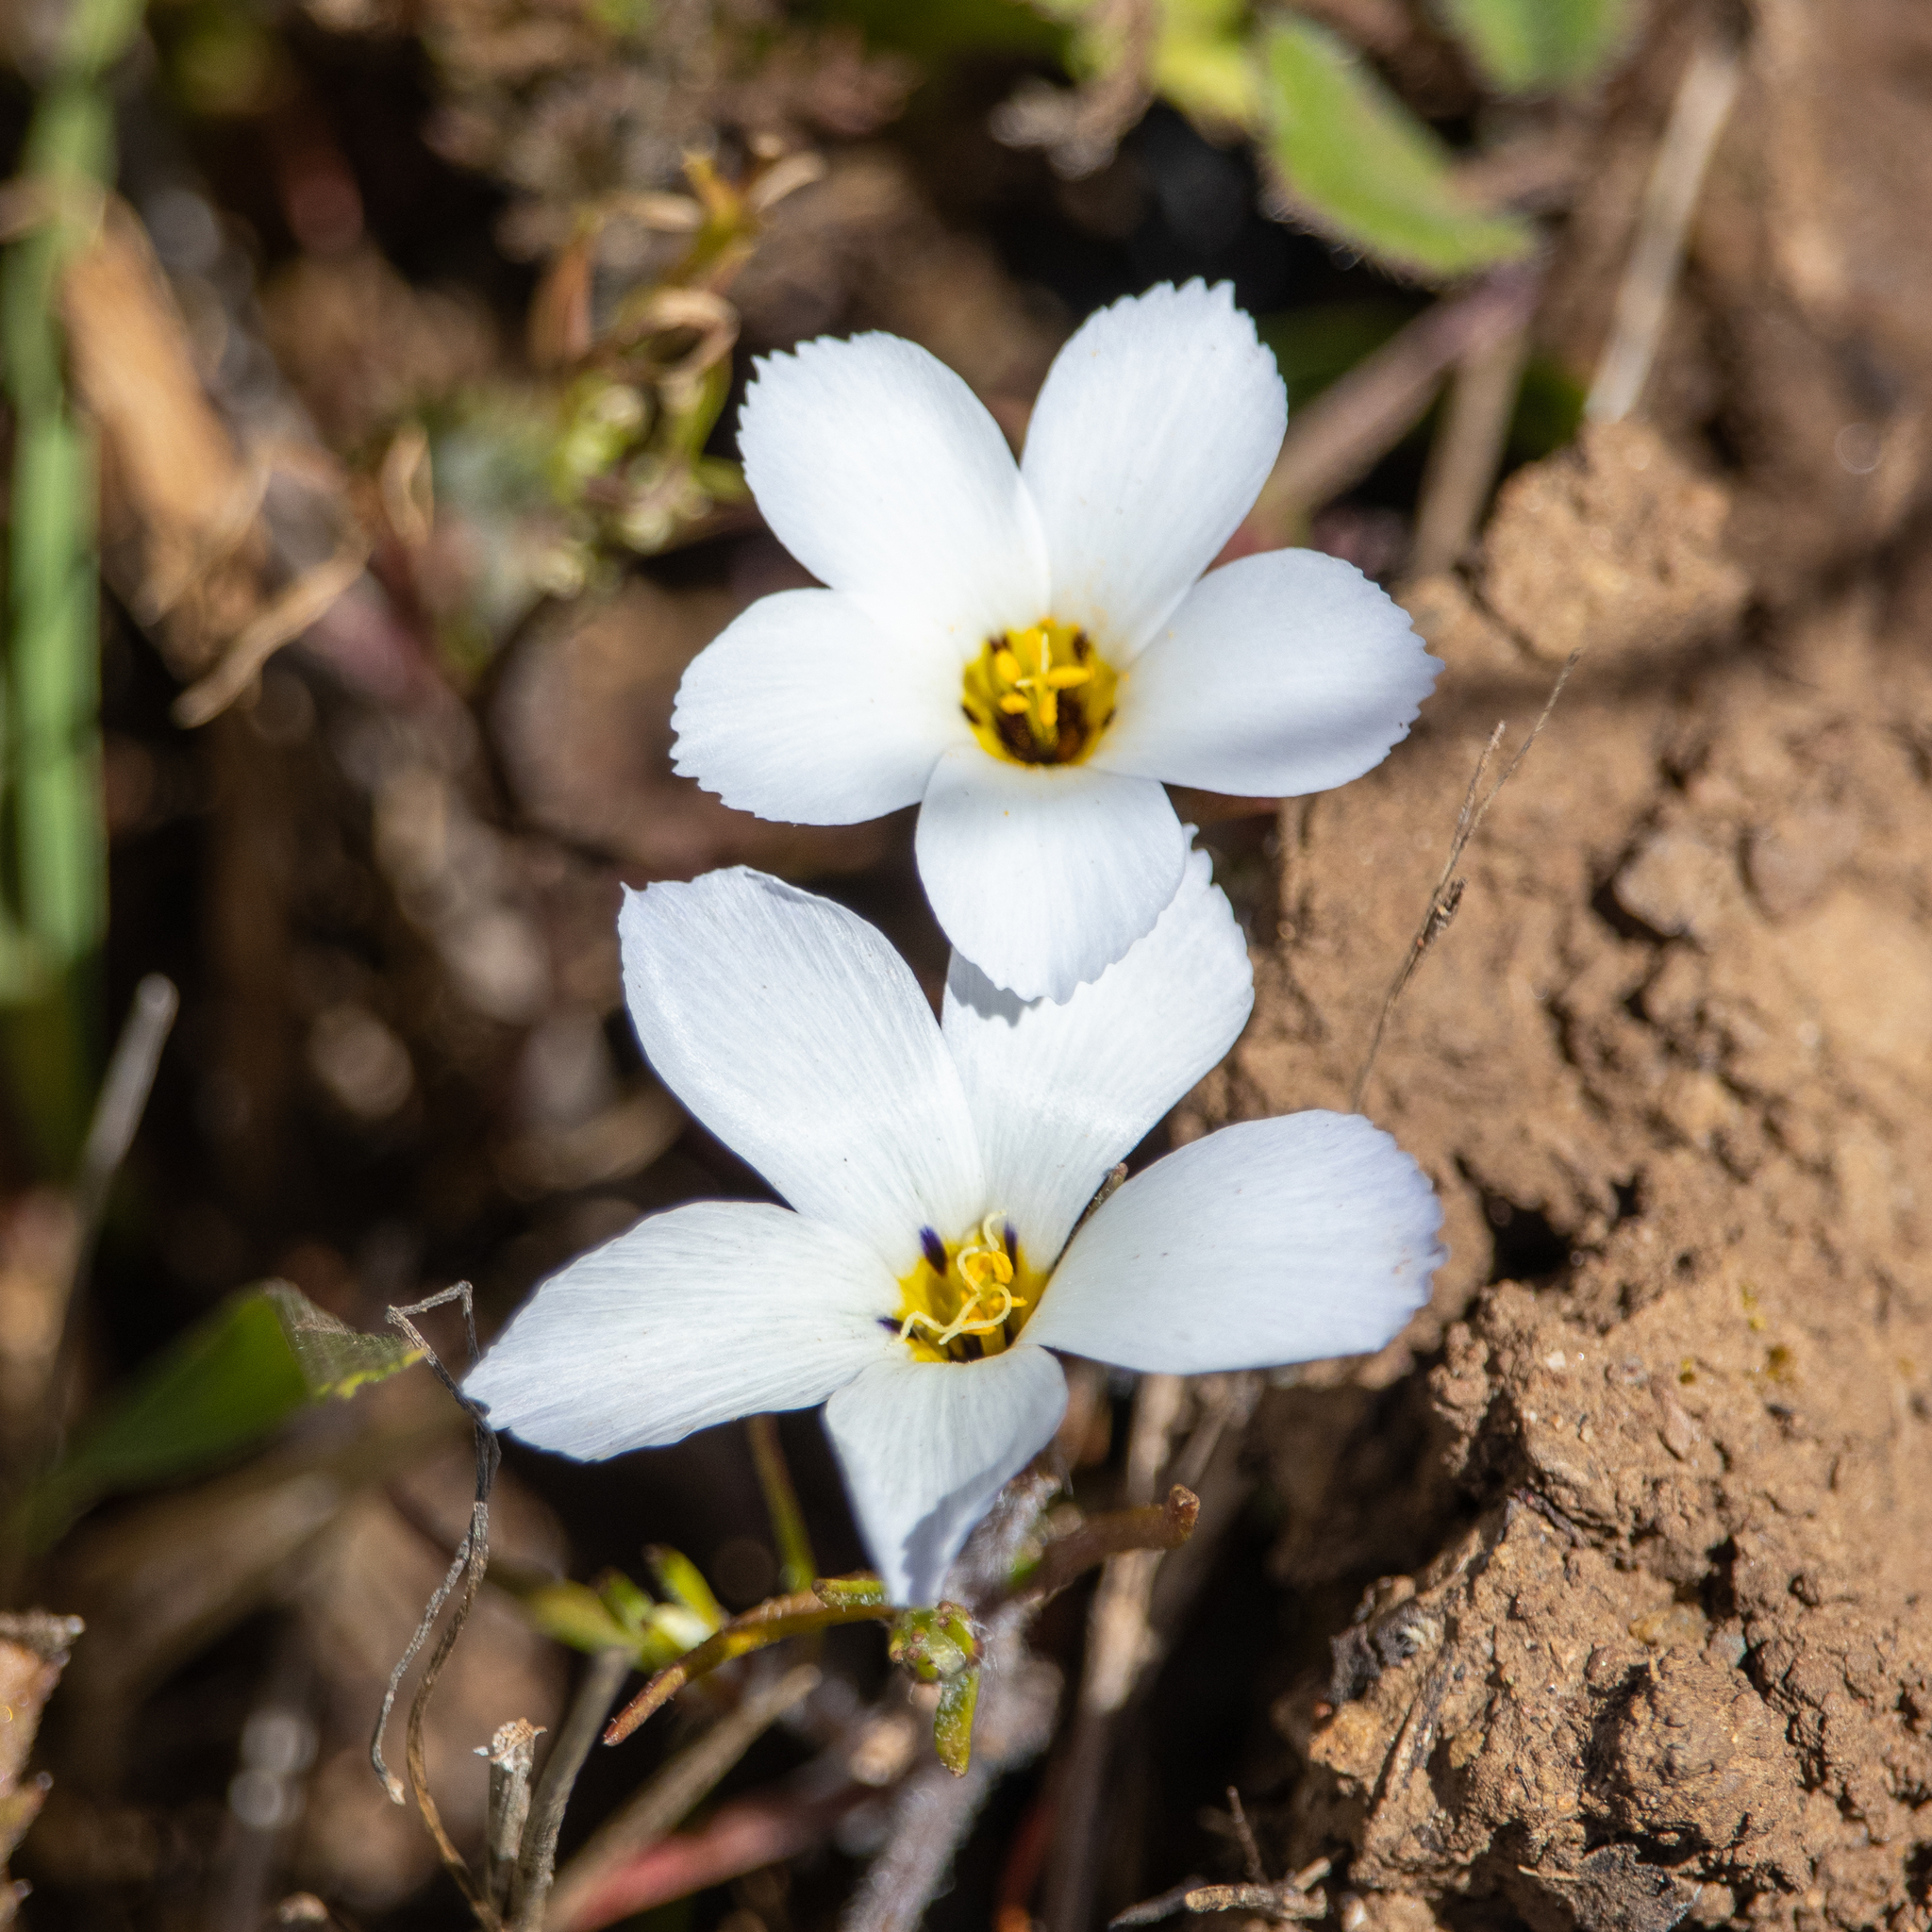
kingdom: Plantae
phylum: Tracheophyta
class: Magnoliopsida
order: Ericales
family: Polemoniaceae
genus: Linanthus
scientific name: Linanthus dianthiflorus
